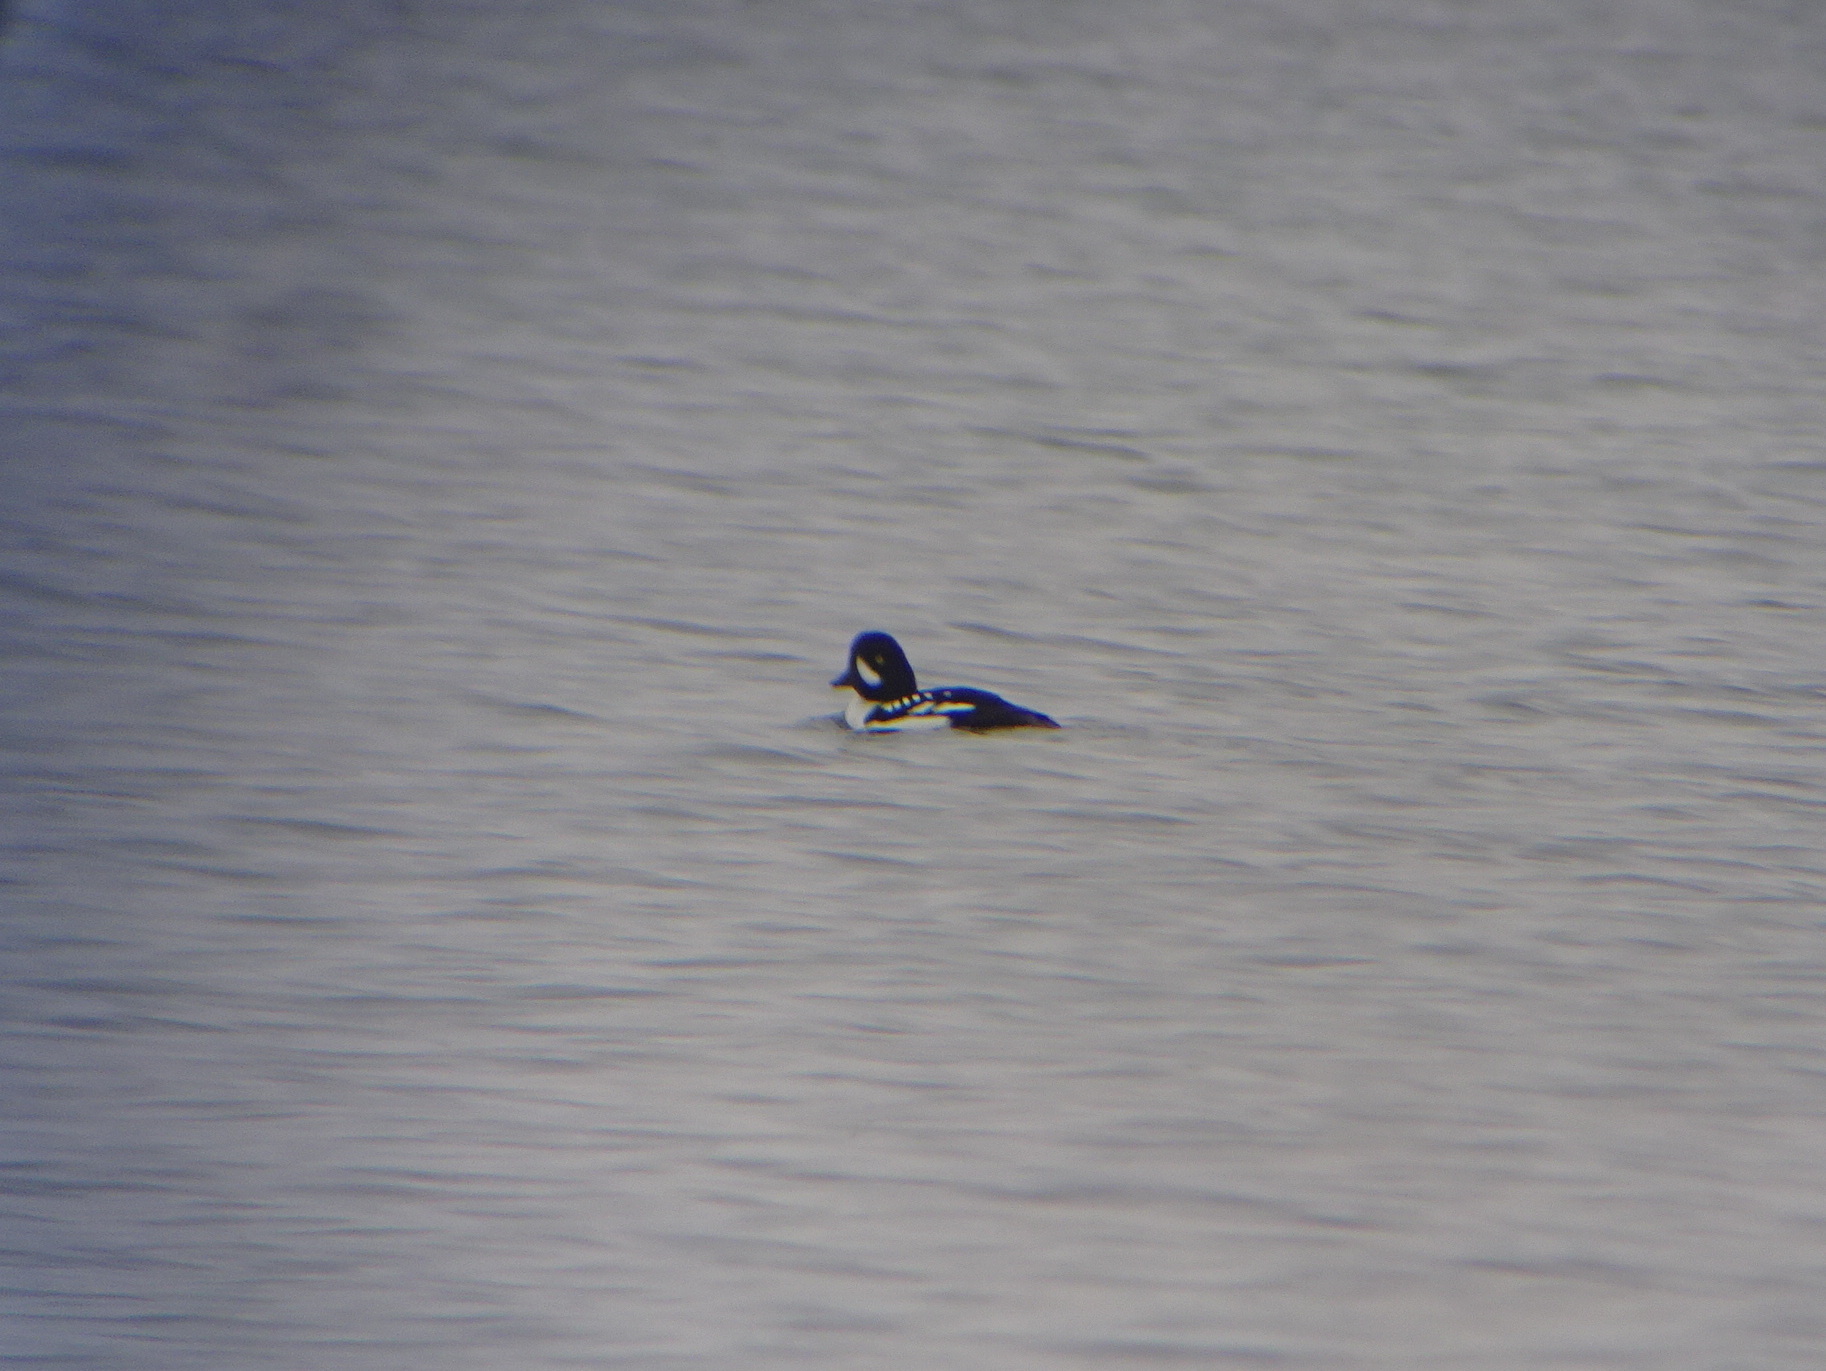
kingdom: Animalia
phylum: Chordata
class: Aves
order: Anseriformes
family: Anatidae
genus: Bucephala
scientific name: Bucephala islandica
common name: Barrow's goldeneye
